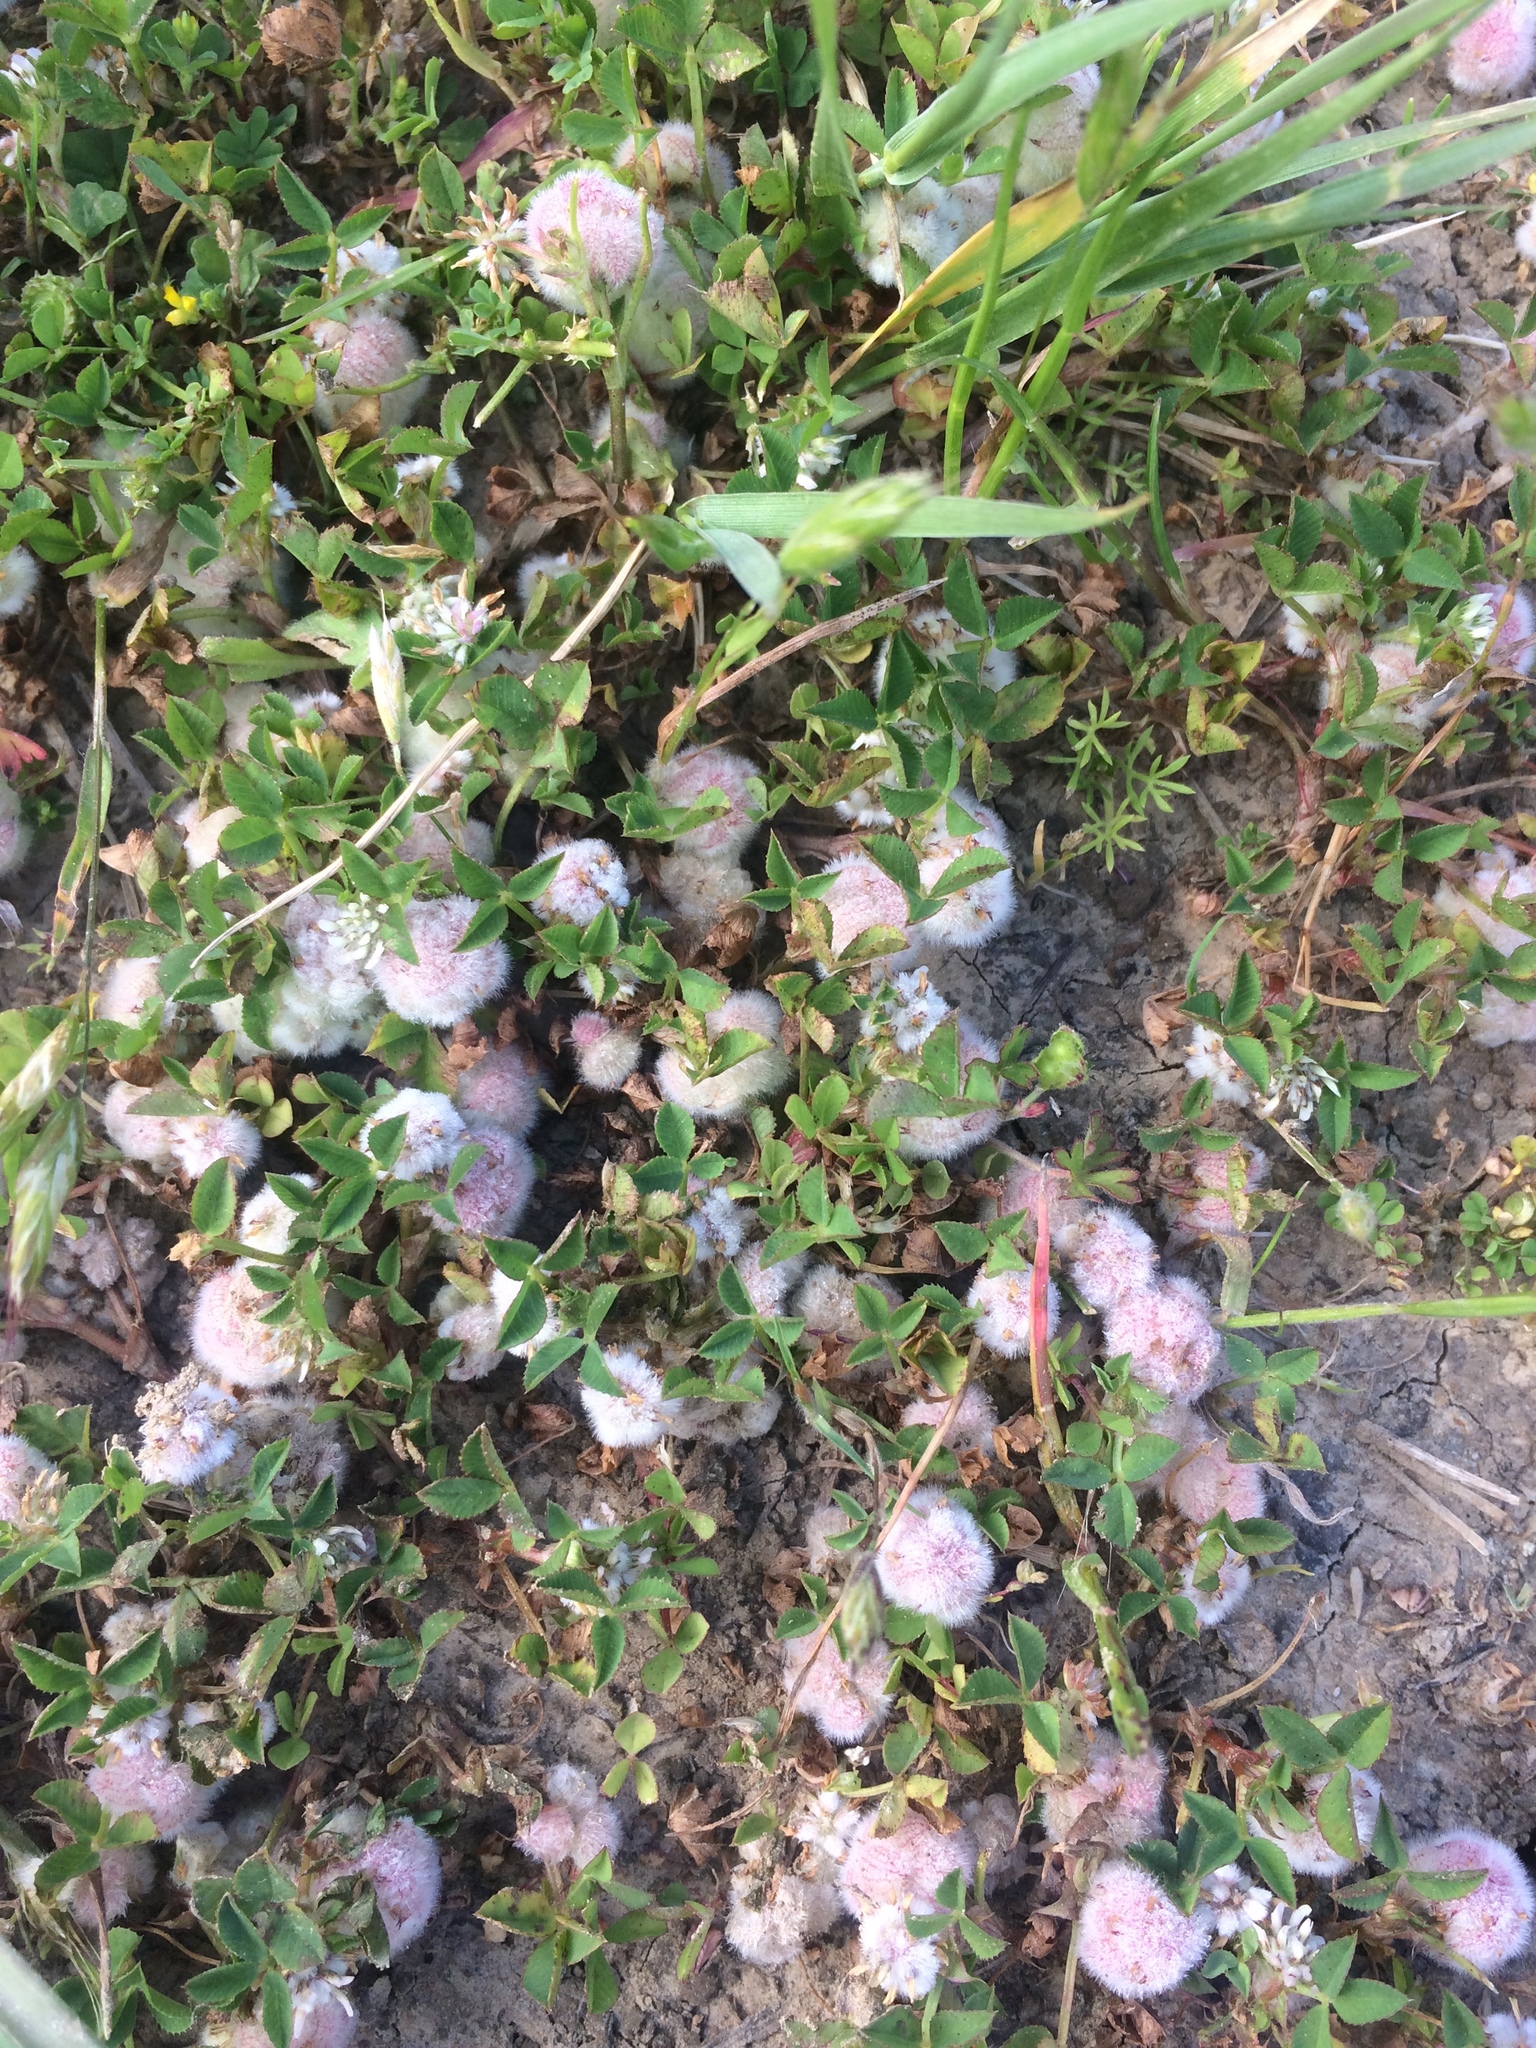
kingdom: Plantae
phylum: Tracheophyta
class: Magnoliopsida
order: Fabales
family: Fabaceae
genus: Trifolium
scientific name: Trifolium tomentosum
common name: Woolly clover
